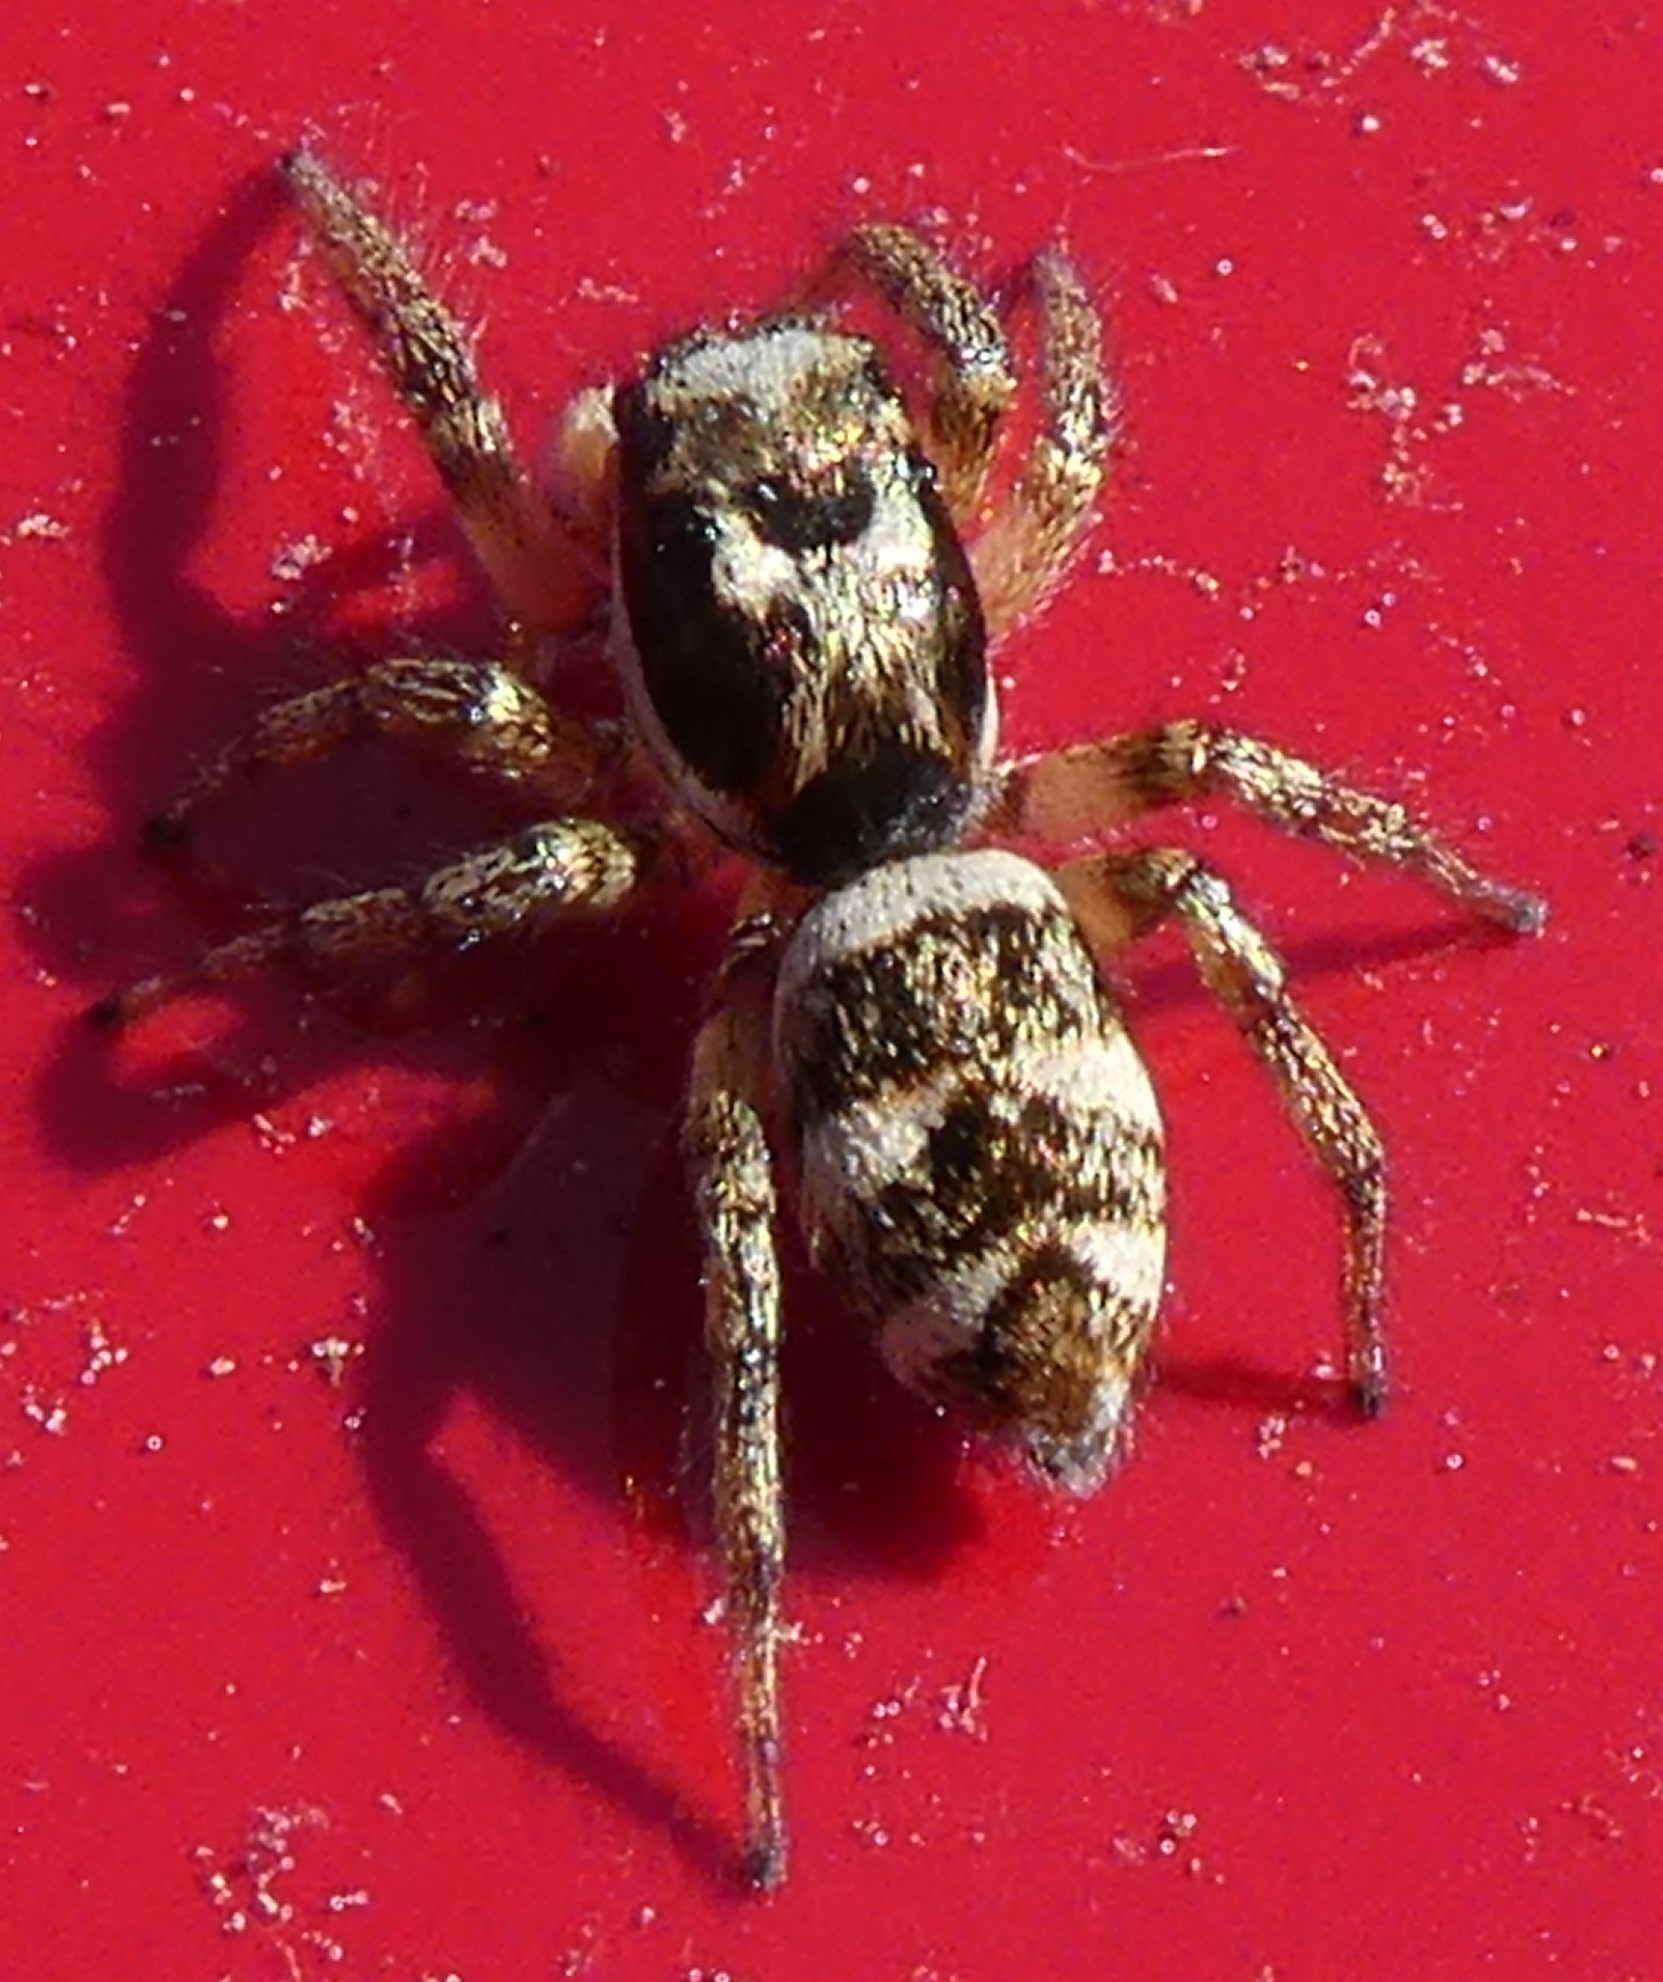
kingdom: Animalia
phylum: Arthropoda
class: Arachnida
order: Araneae
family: Salticidae
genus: Salticus
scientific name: Salticus scenicus
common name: Zebra jumper
